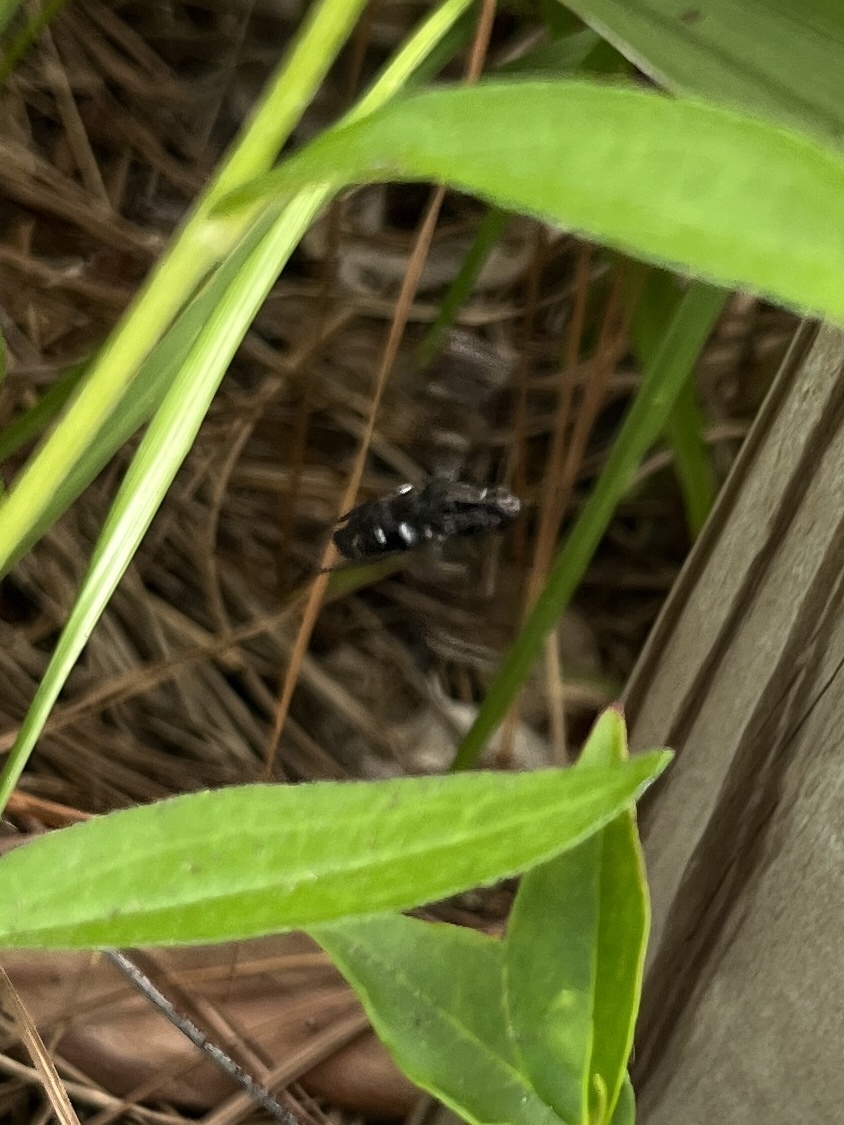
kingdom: Animalia
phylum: Arthropoda
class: Insecta
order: Diptera
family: Bombyliidae
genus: Xenox
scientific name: Xenox tigrinus
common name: Tiger bee fly
